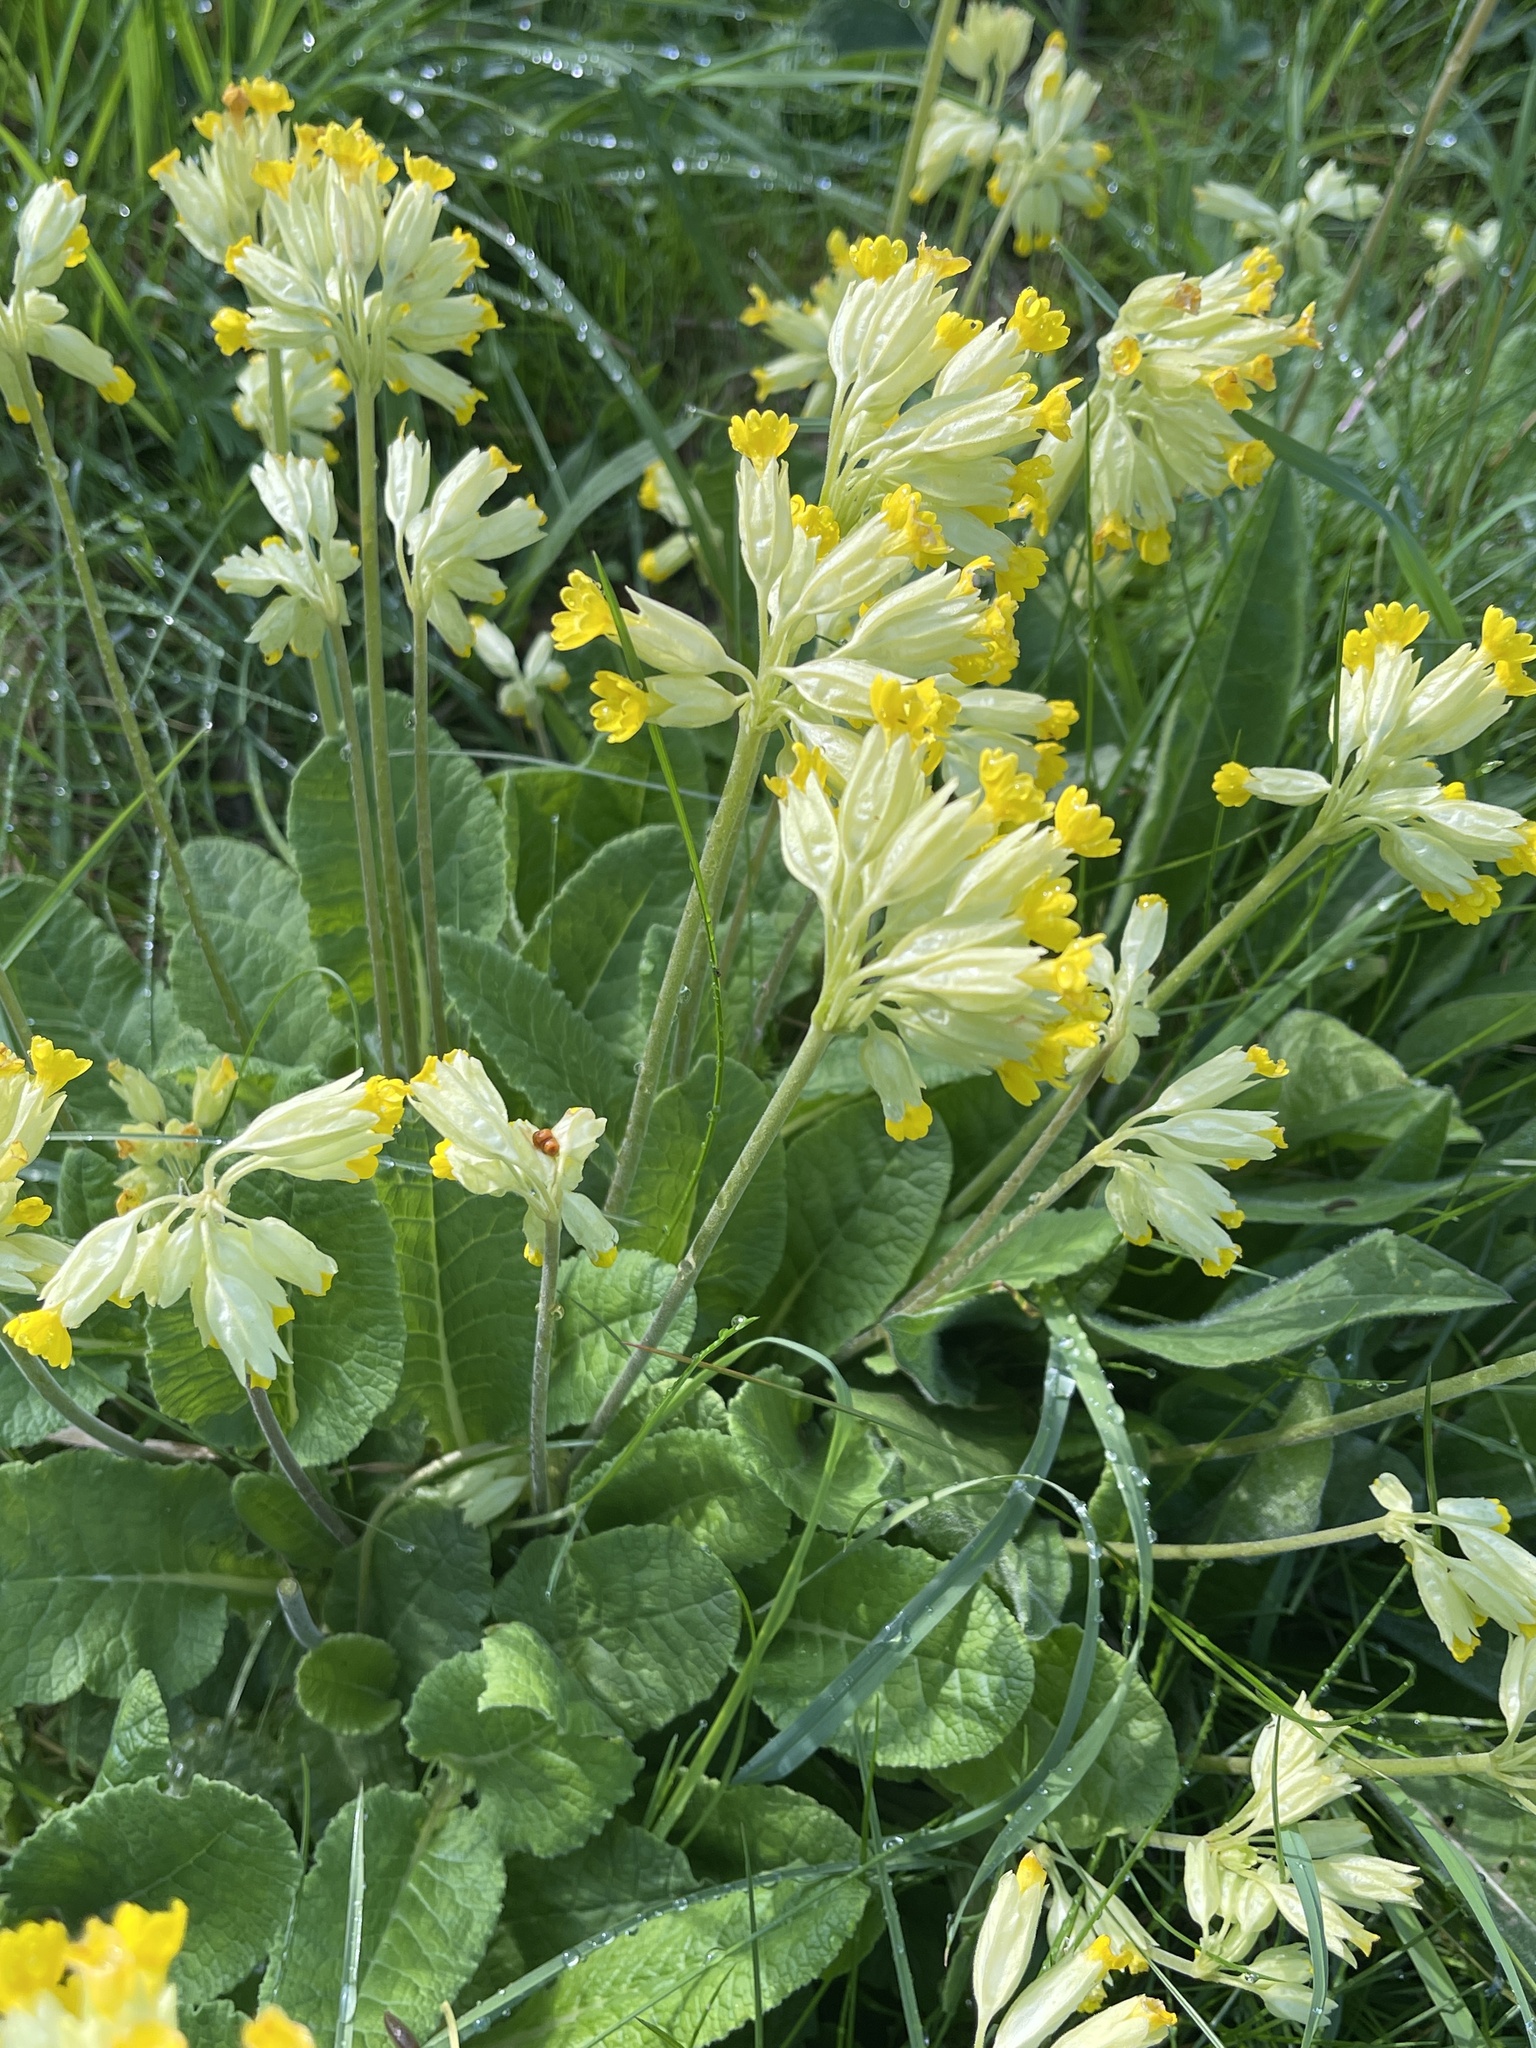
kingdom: Plantae
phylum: Tracheophyta
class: Magnoliopsida
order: Ericales
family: Primulaceae
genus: Primula
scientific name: Primula veris
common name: Cowslip
